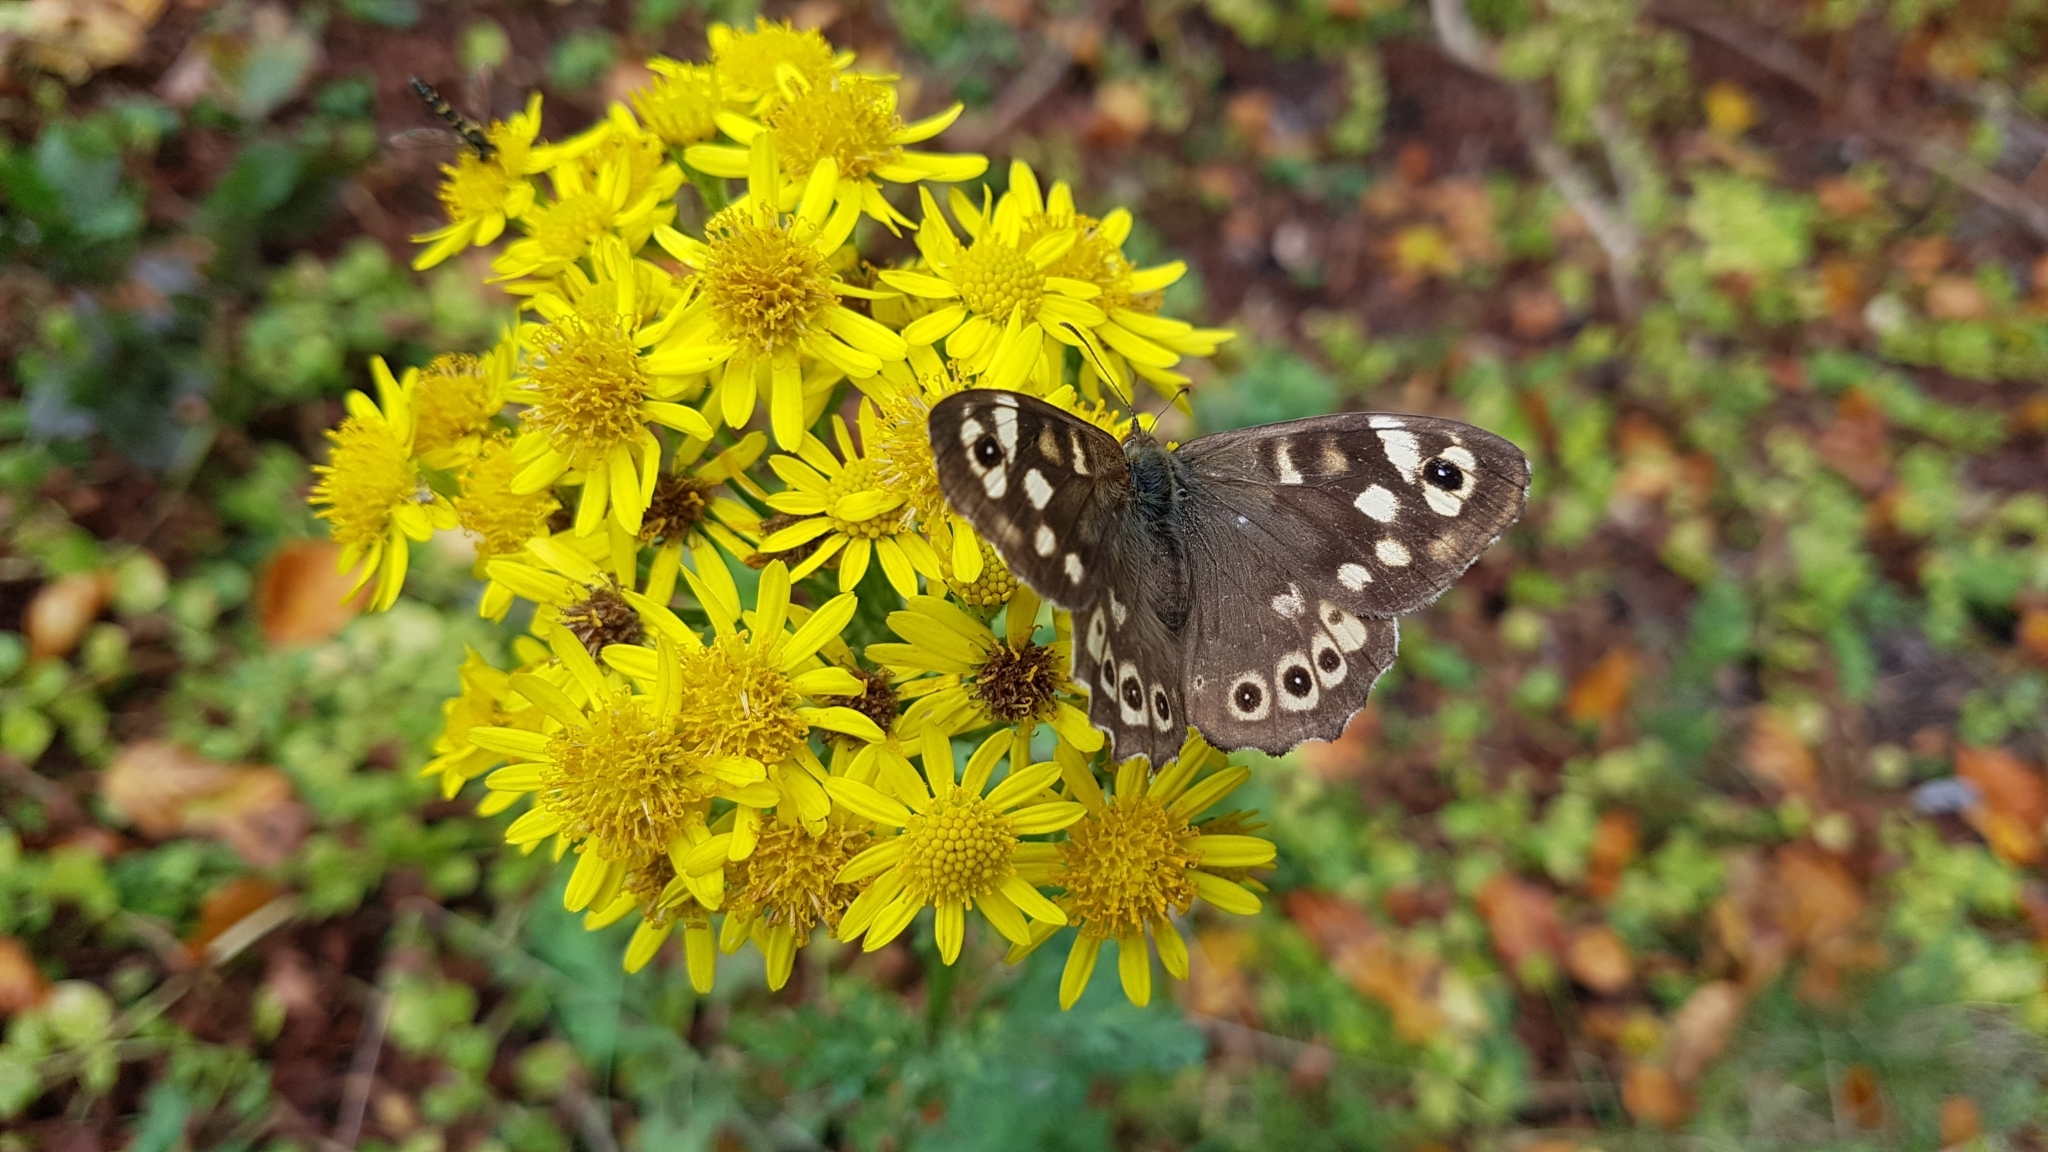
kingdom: Animalia
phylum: Arthropoda
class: Insecta
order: Lepidoptera
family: Nymphalidae
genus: Pararge
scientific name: Pararge aegeria
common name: Speckled wood
